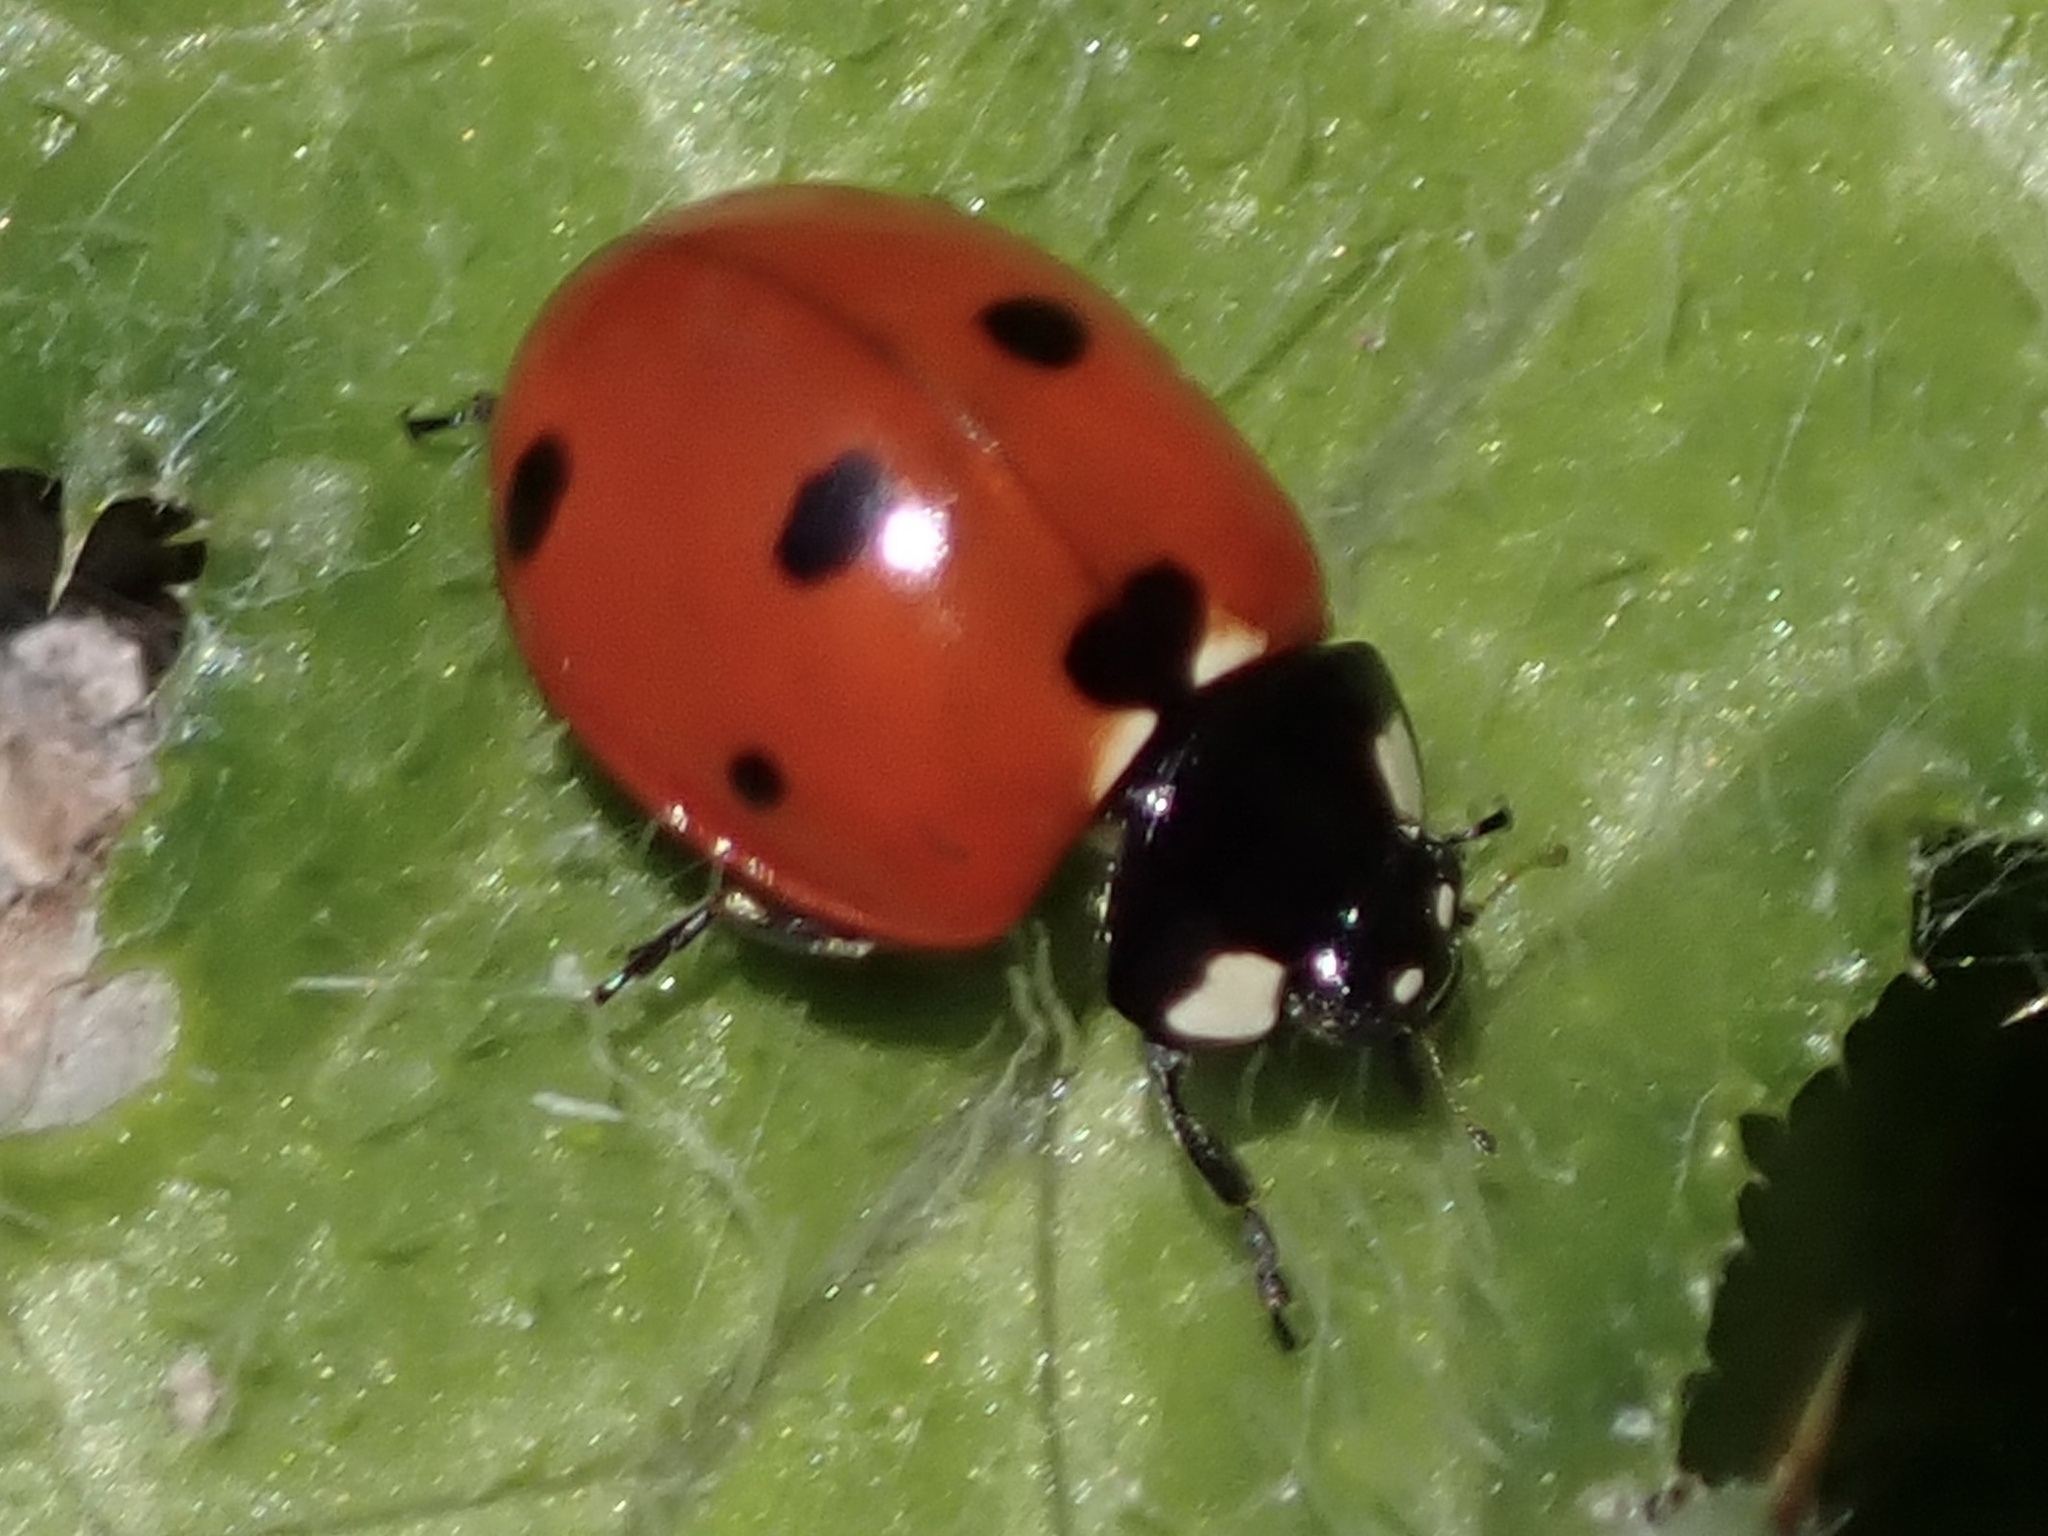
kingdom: Animalia
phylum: Arthropoda
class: Insecta
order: Coleoptera
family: Coccinellidae
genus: Coccinella
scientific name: Coccinella septempunctata
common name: Sevenspotted lady beetle
